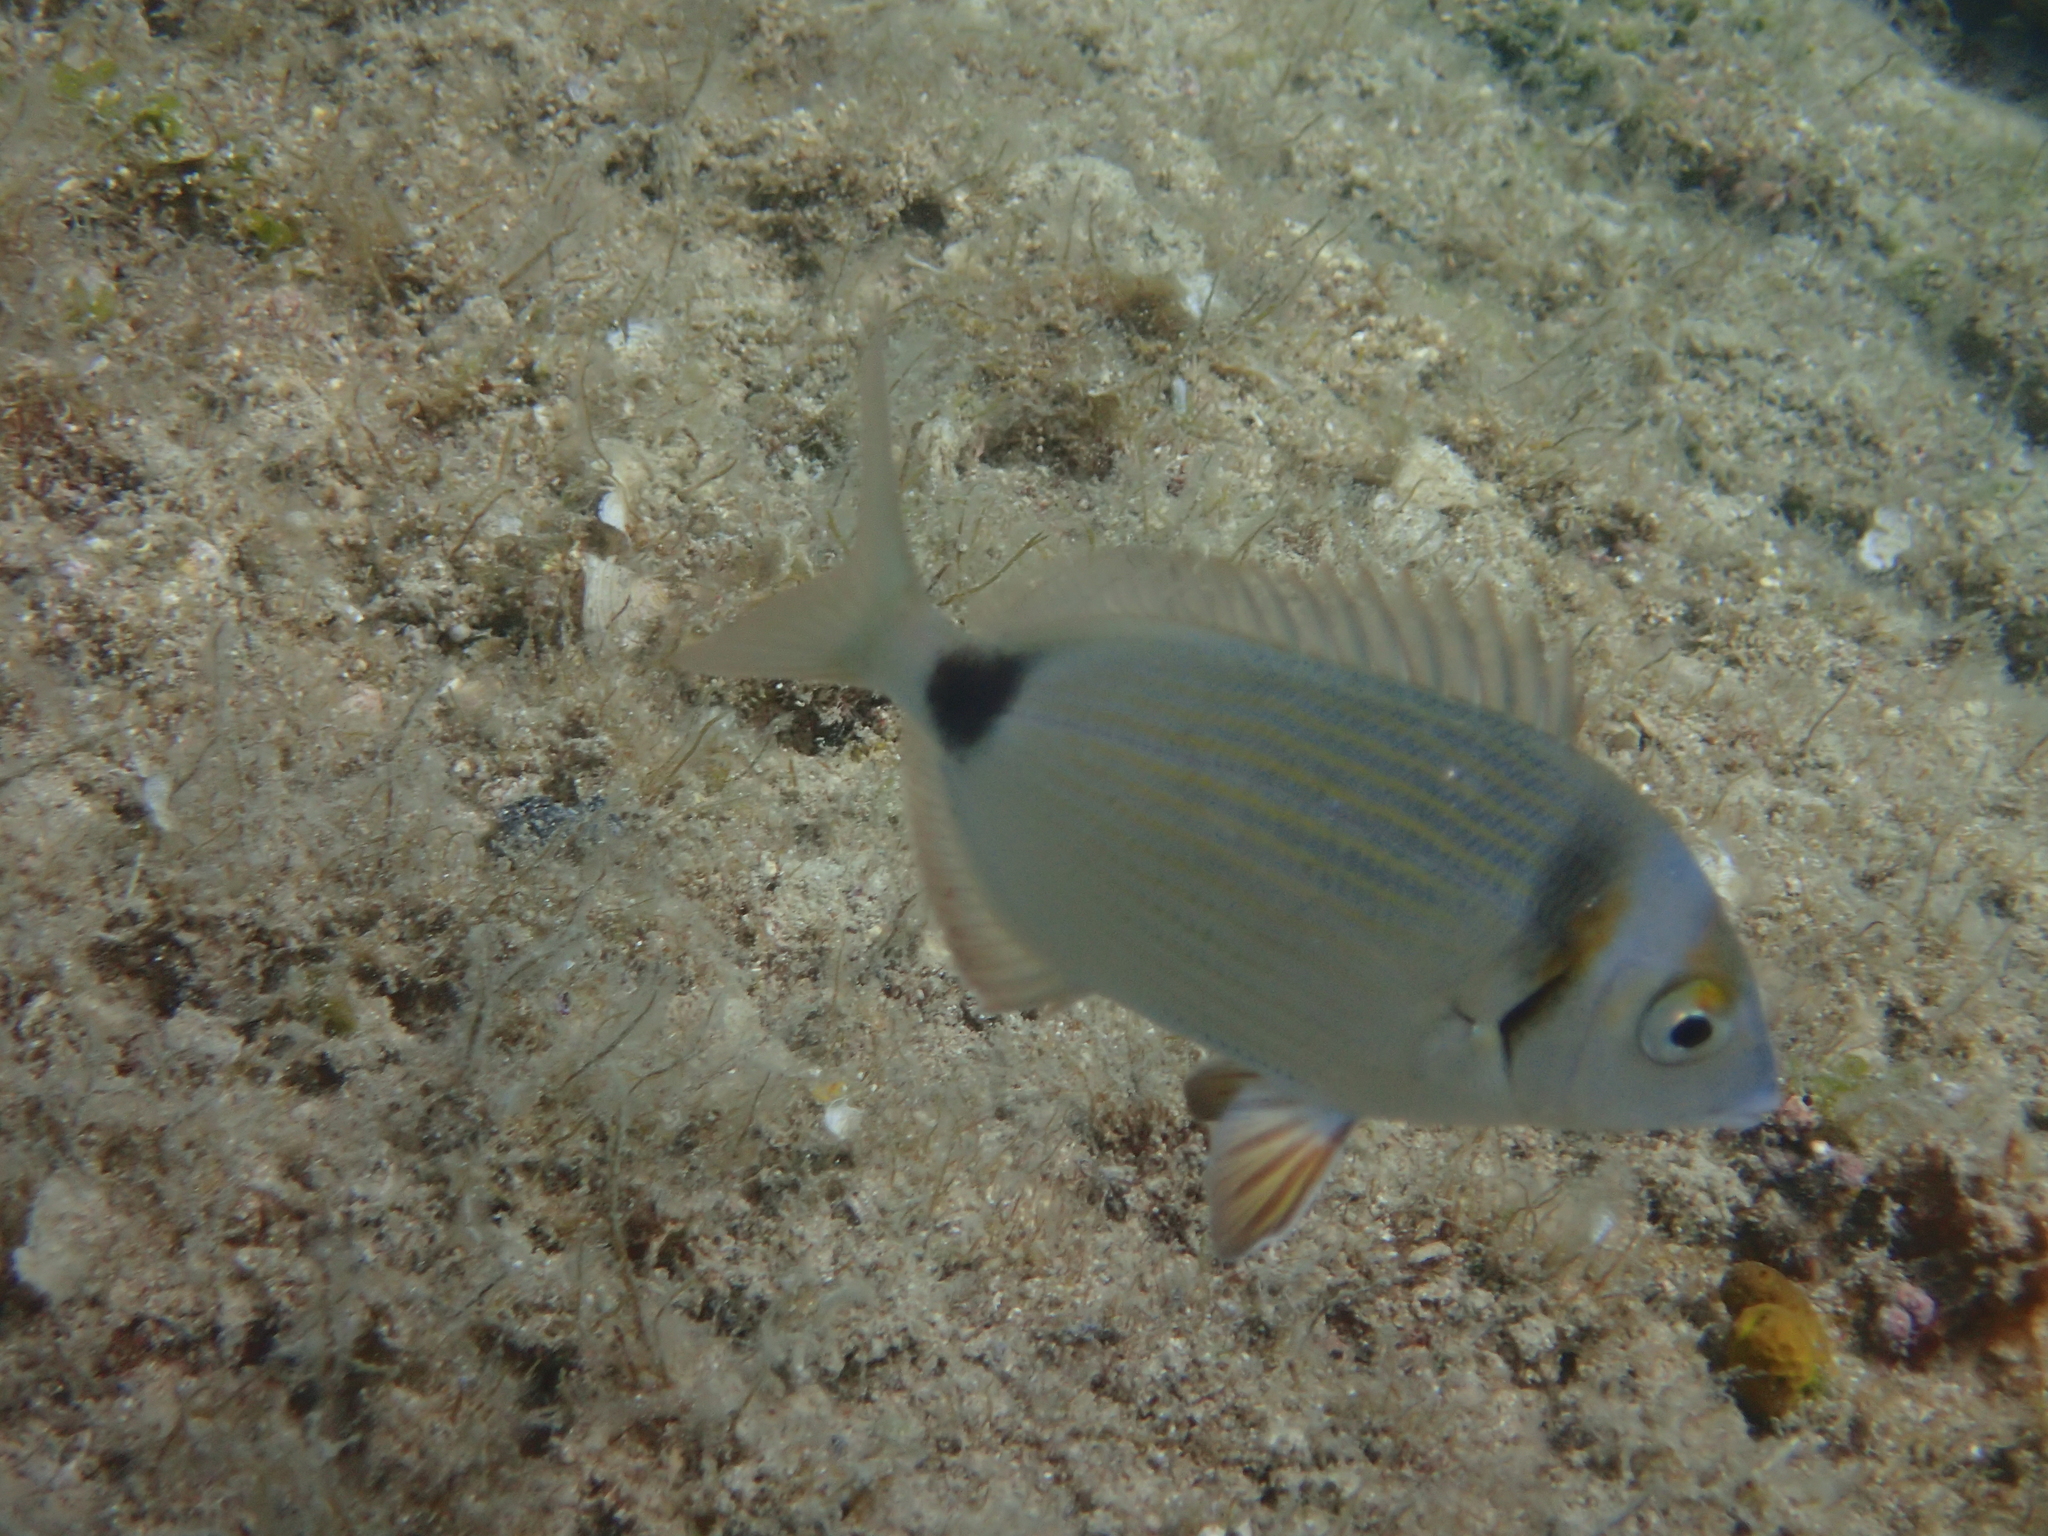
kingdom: Animalia
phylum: Chordata
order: Perciformes
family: Sparidae
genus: Diplodus
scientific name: Diplodus vulgaris
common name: Common two-banded seabream
